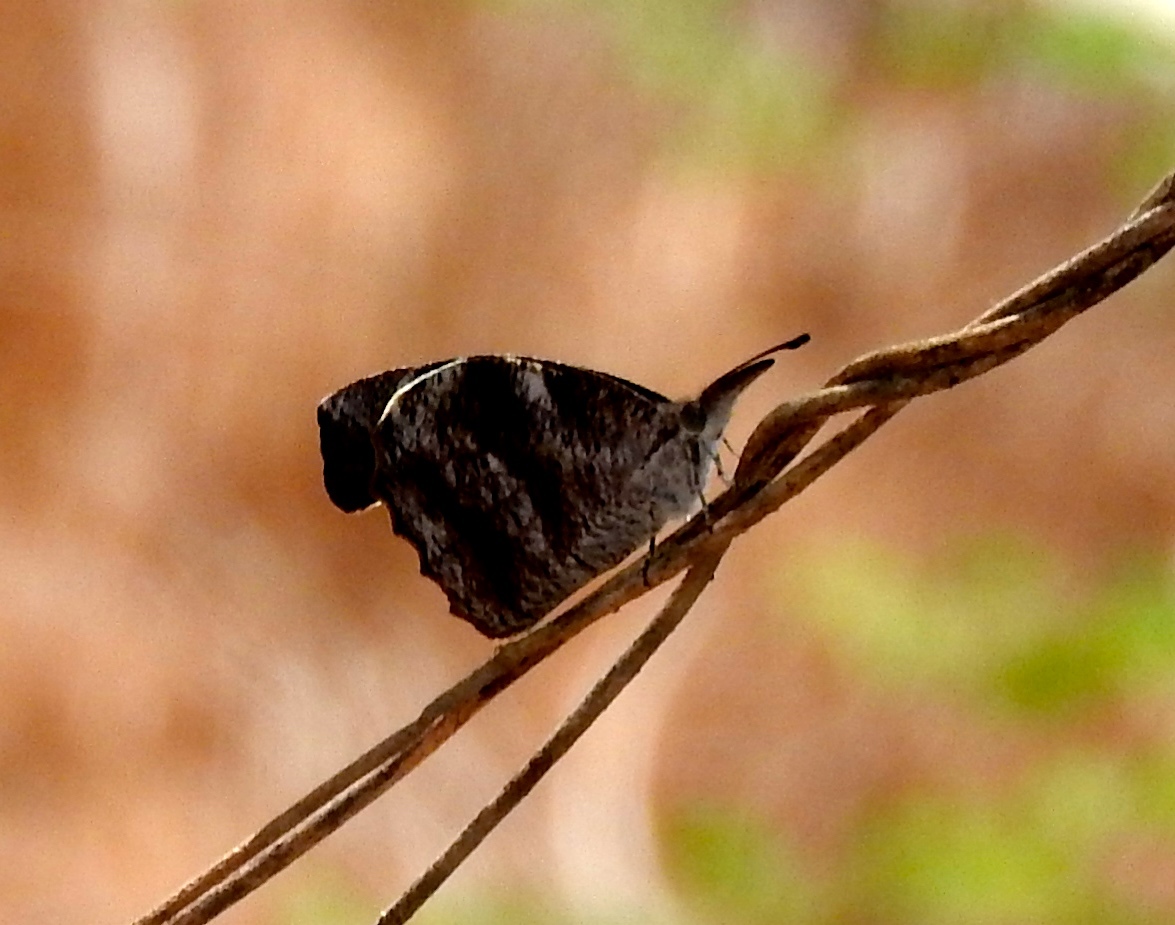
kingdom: Animalia
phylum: Arthropoda
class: Insecta
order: Lepidoptera
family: Nymphalidae
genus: Libytheana
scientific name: Libytheana carinenta
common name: American snout
